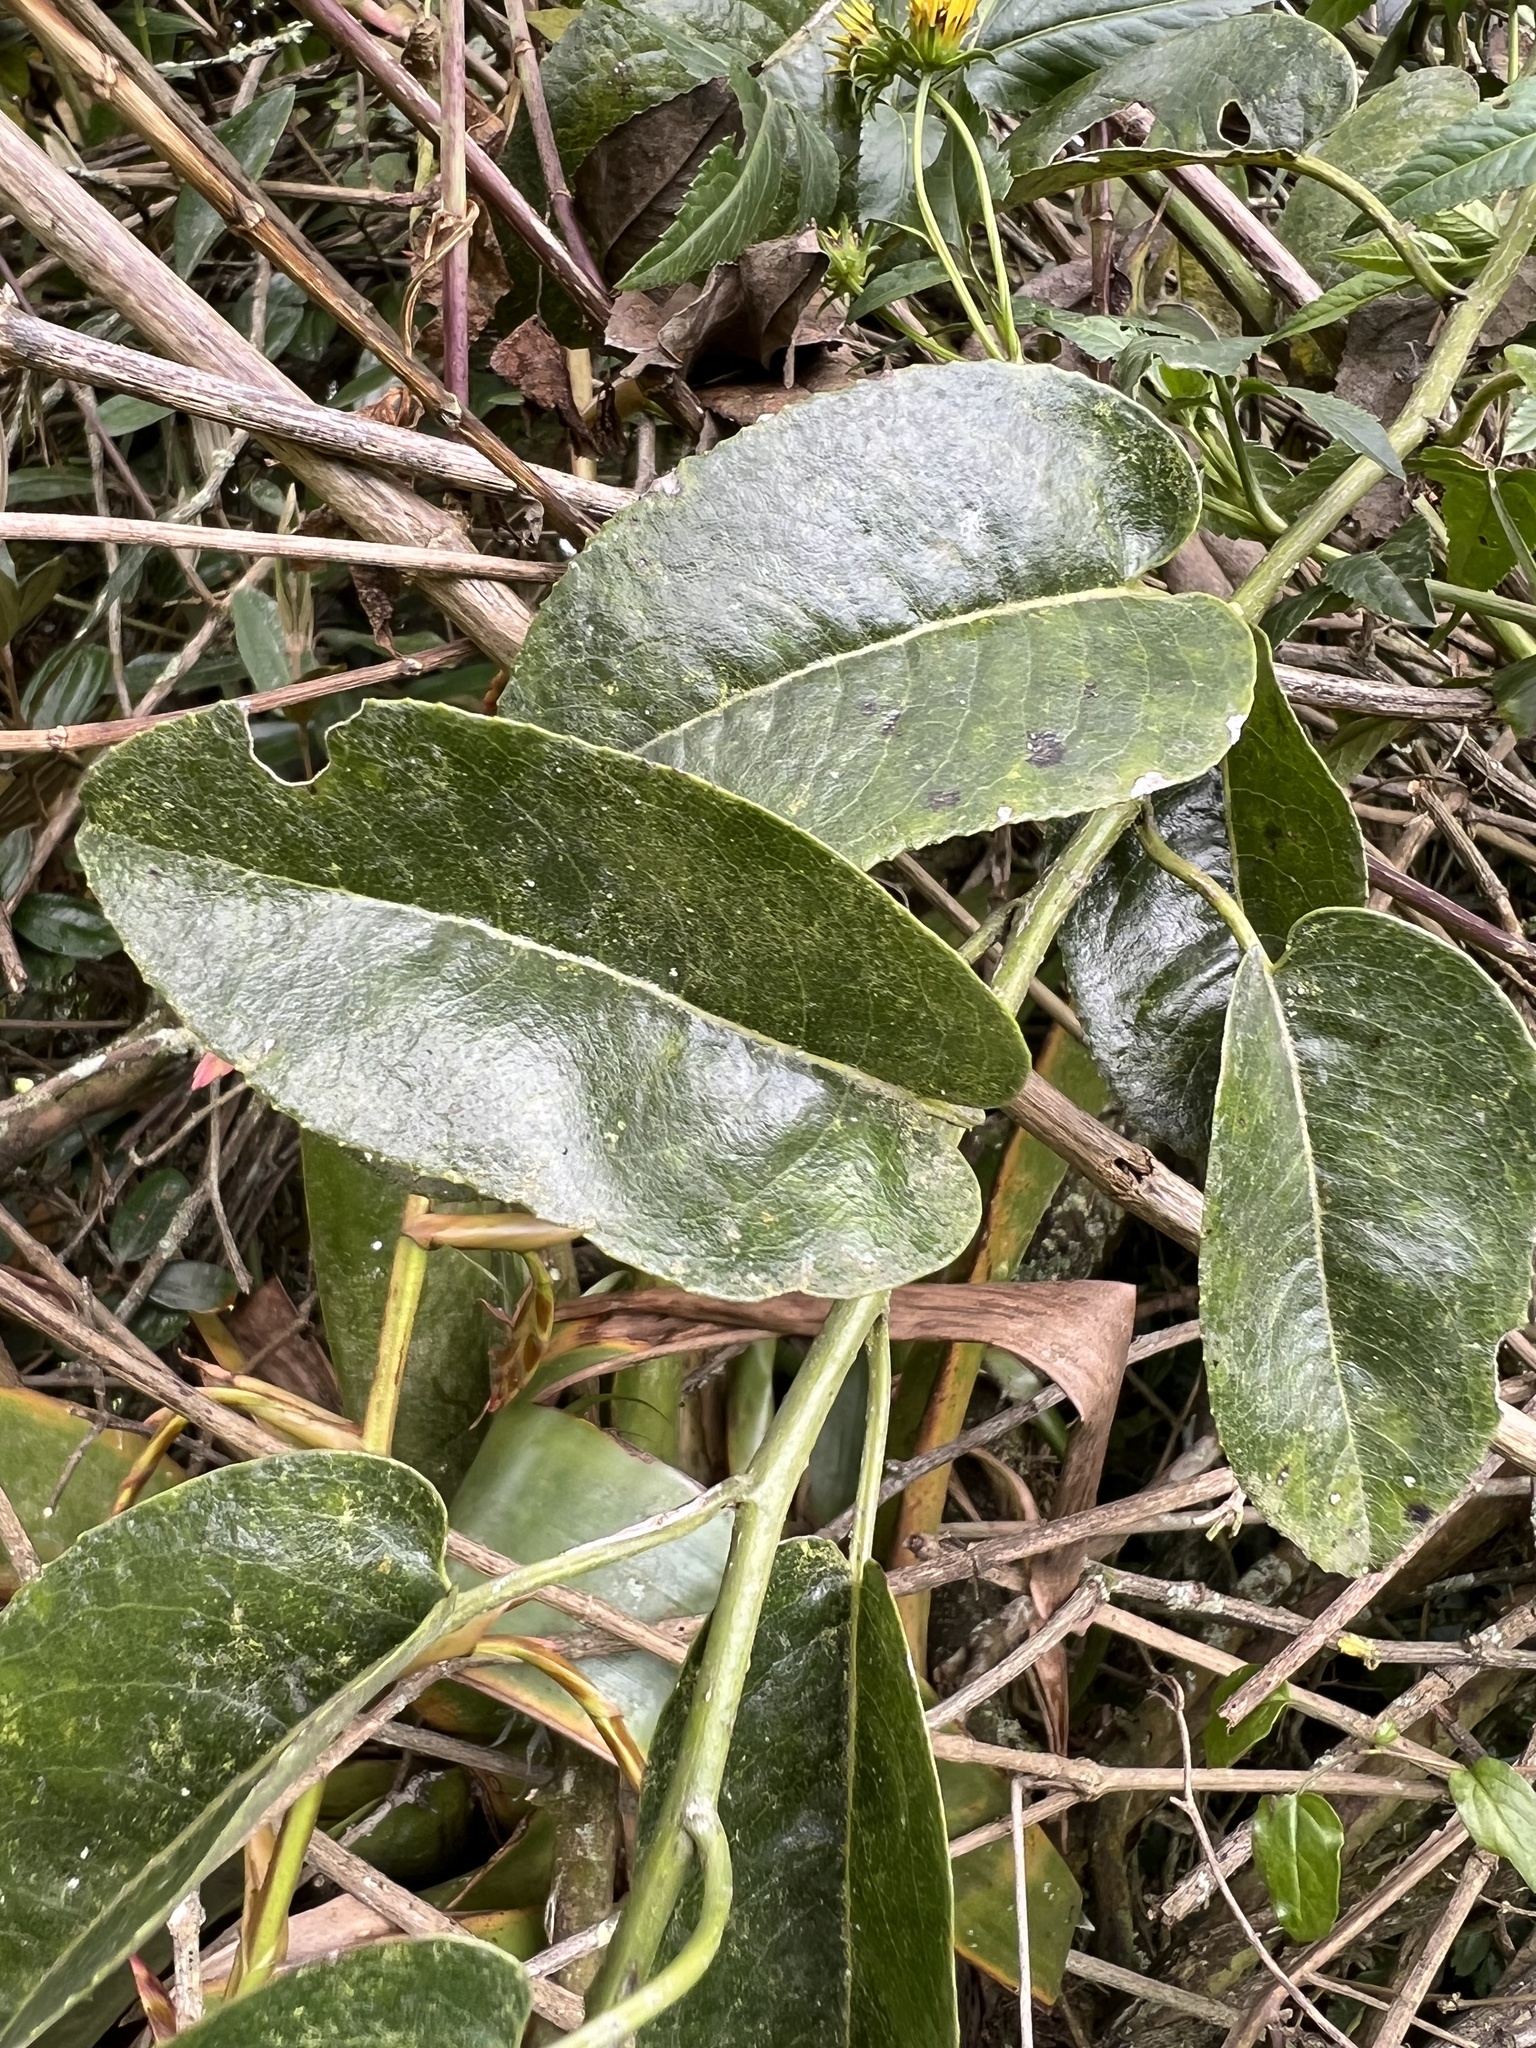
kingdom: Plantae
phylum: Tracheophyta
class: Magnoliopsida
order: Asterales
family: Asteraceae
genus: Dendrophorbium
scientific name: Dendrophorbium americanum
